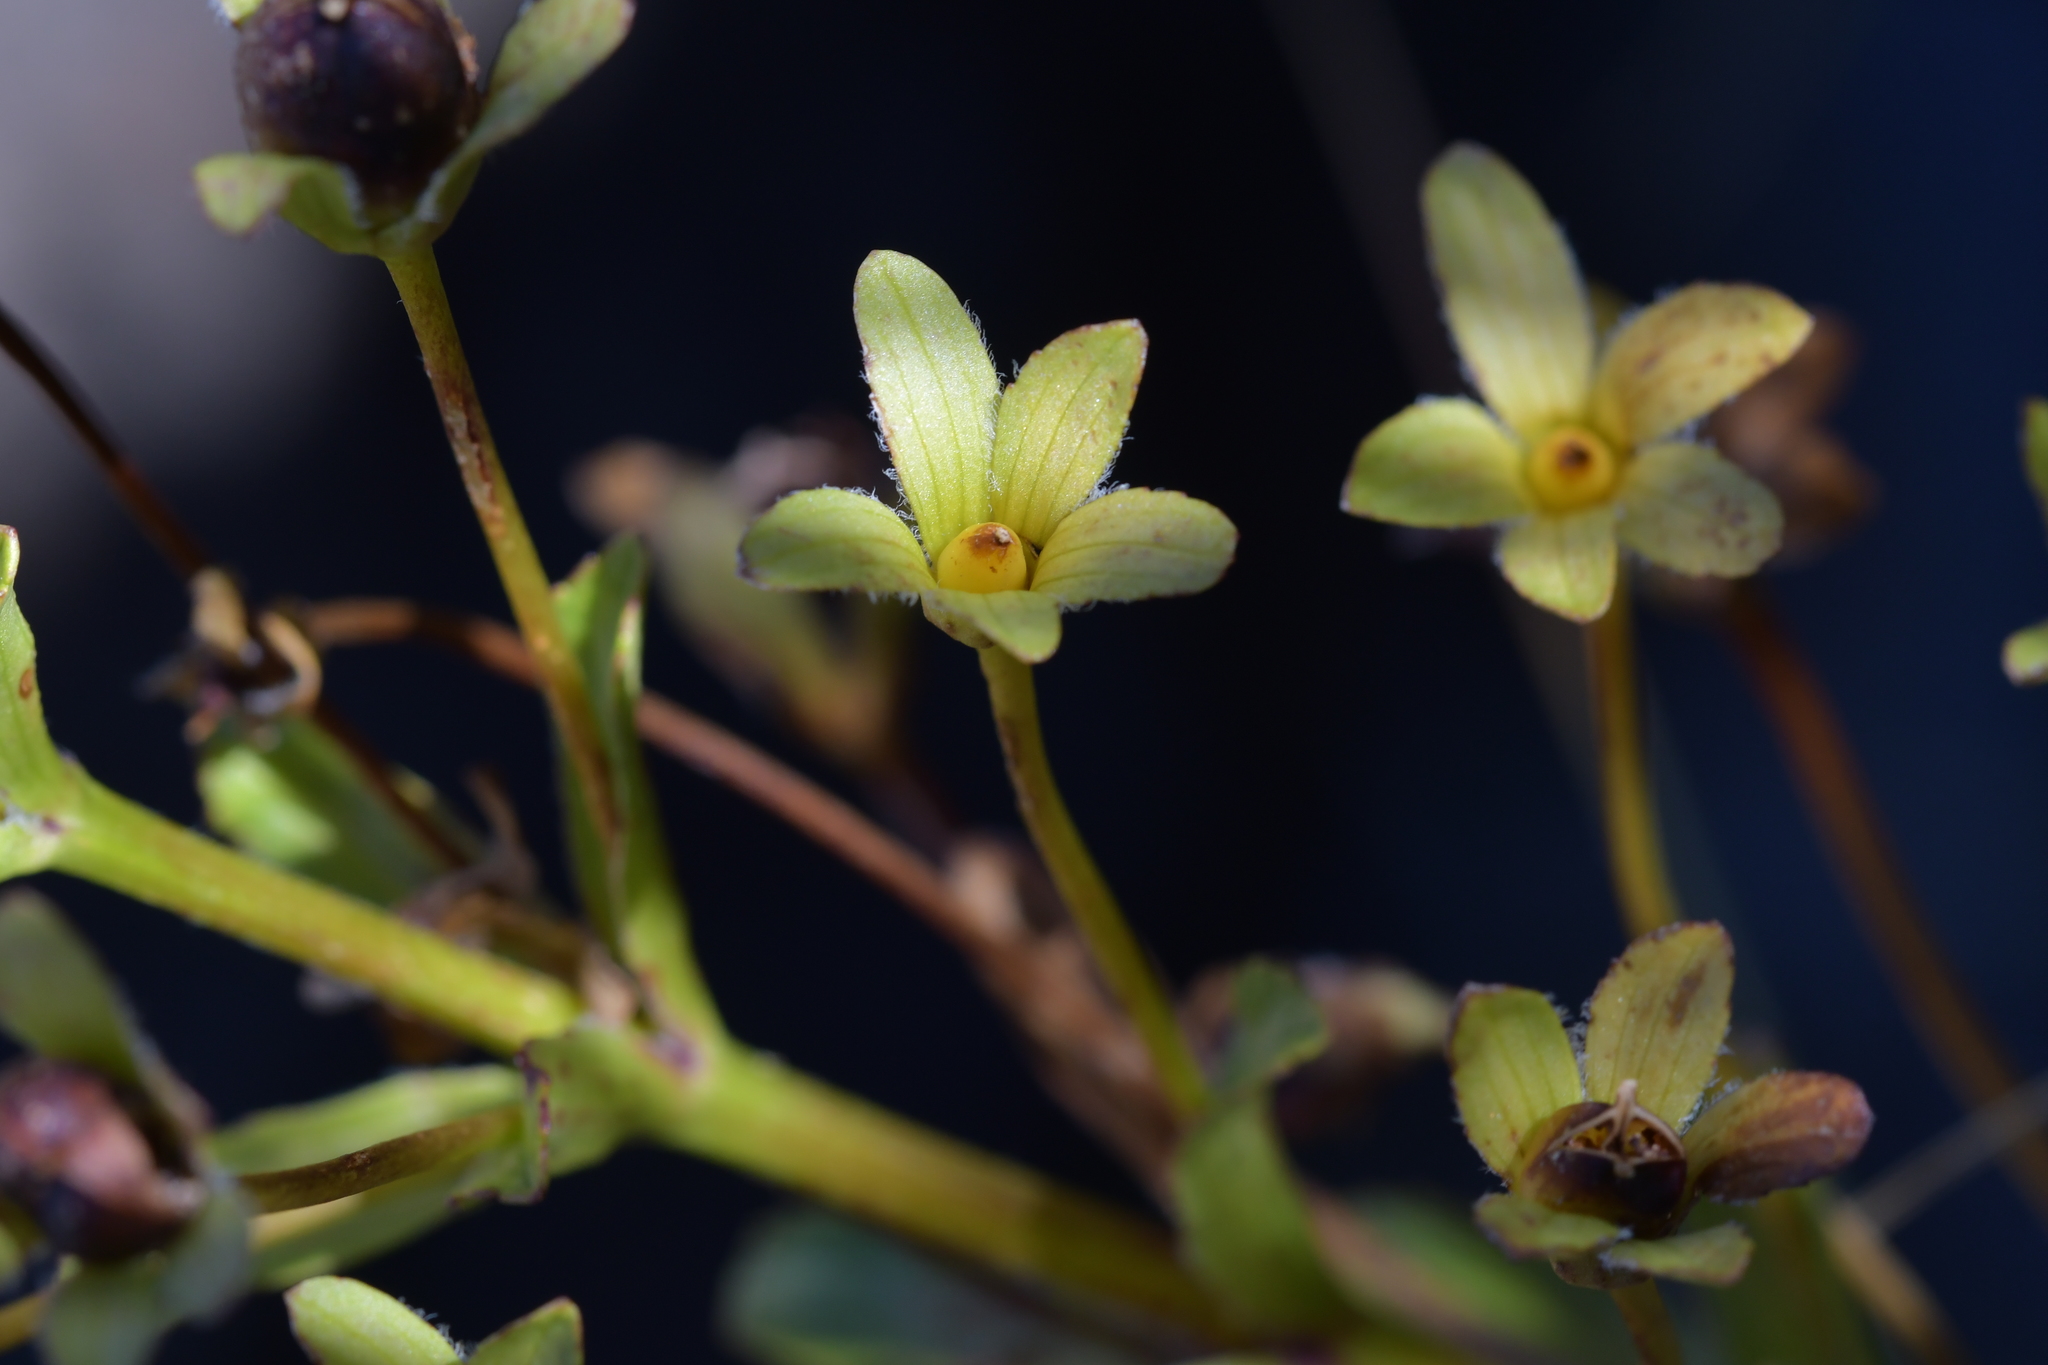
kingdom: Plantae
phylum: Tracheophyta
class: Magnoliopsida
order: Lamiales
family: Plantaginaceae
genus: Ourisia
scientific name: Ourisia macrophylla
